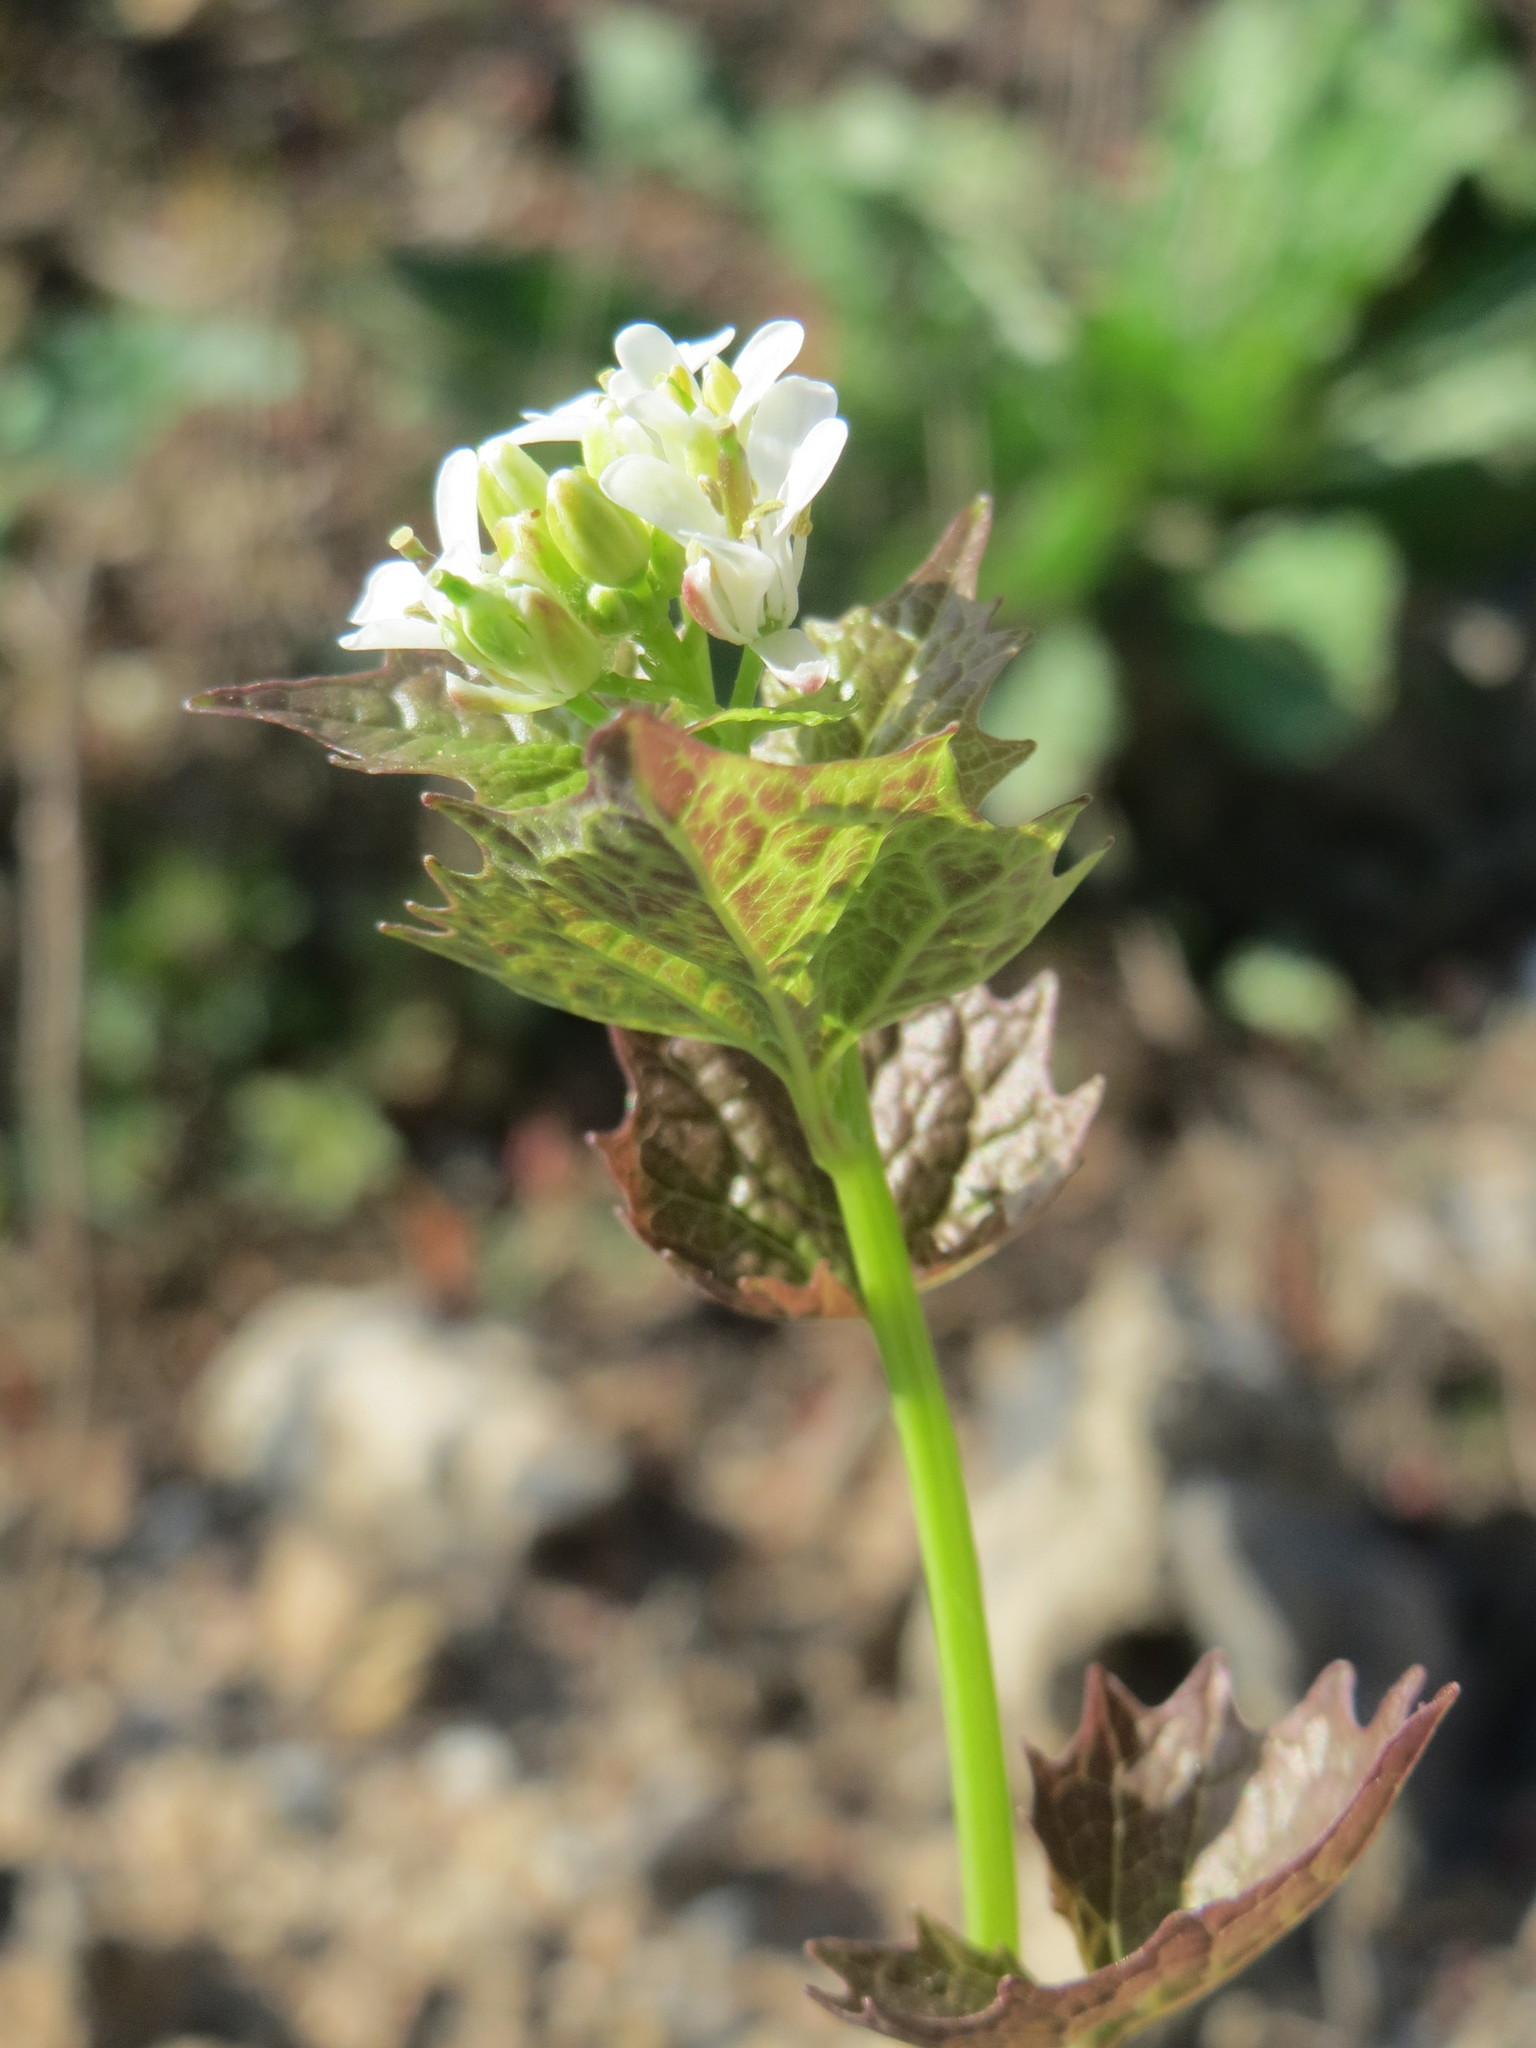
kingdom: Plantae
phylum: Tracheophyta
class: Magnoliopsida
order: Brassicales
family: Brassicaceae
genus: Alliaria
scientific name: Alliaria petiolata
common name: Garlic mustard
